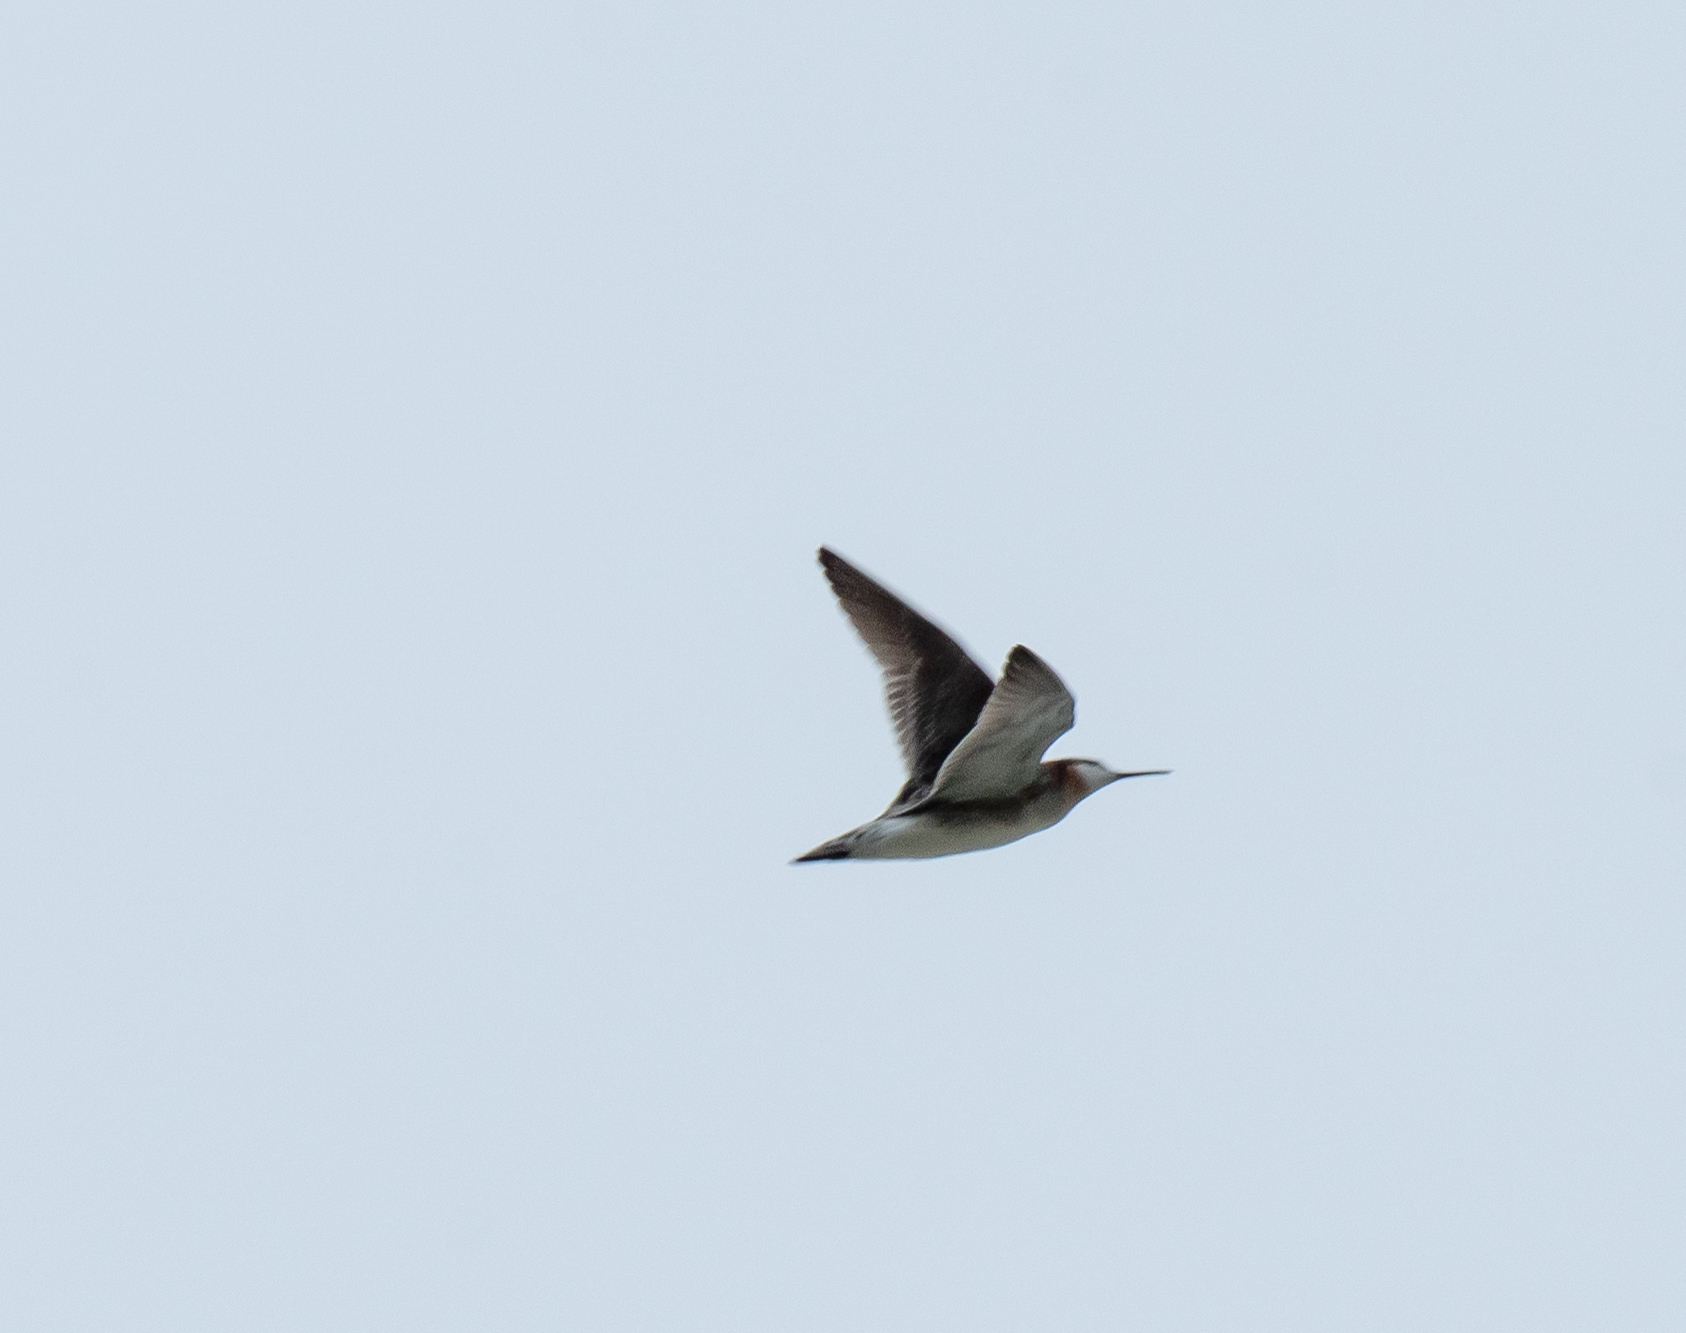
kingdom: Animalia
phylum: Chordata
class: Aves
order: Charadriiformes
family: Scolopacidae
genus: Phalaropus
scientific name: Phalaropus tricolor
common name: Wilson's phalarope
